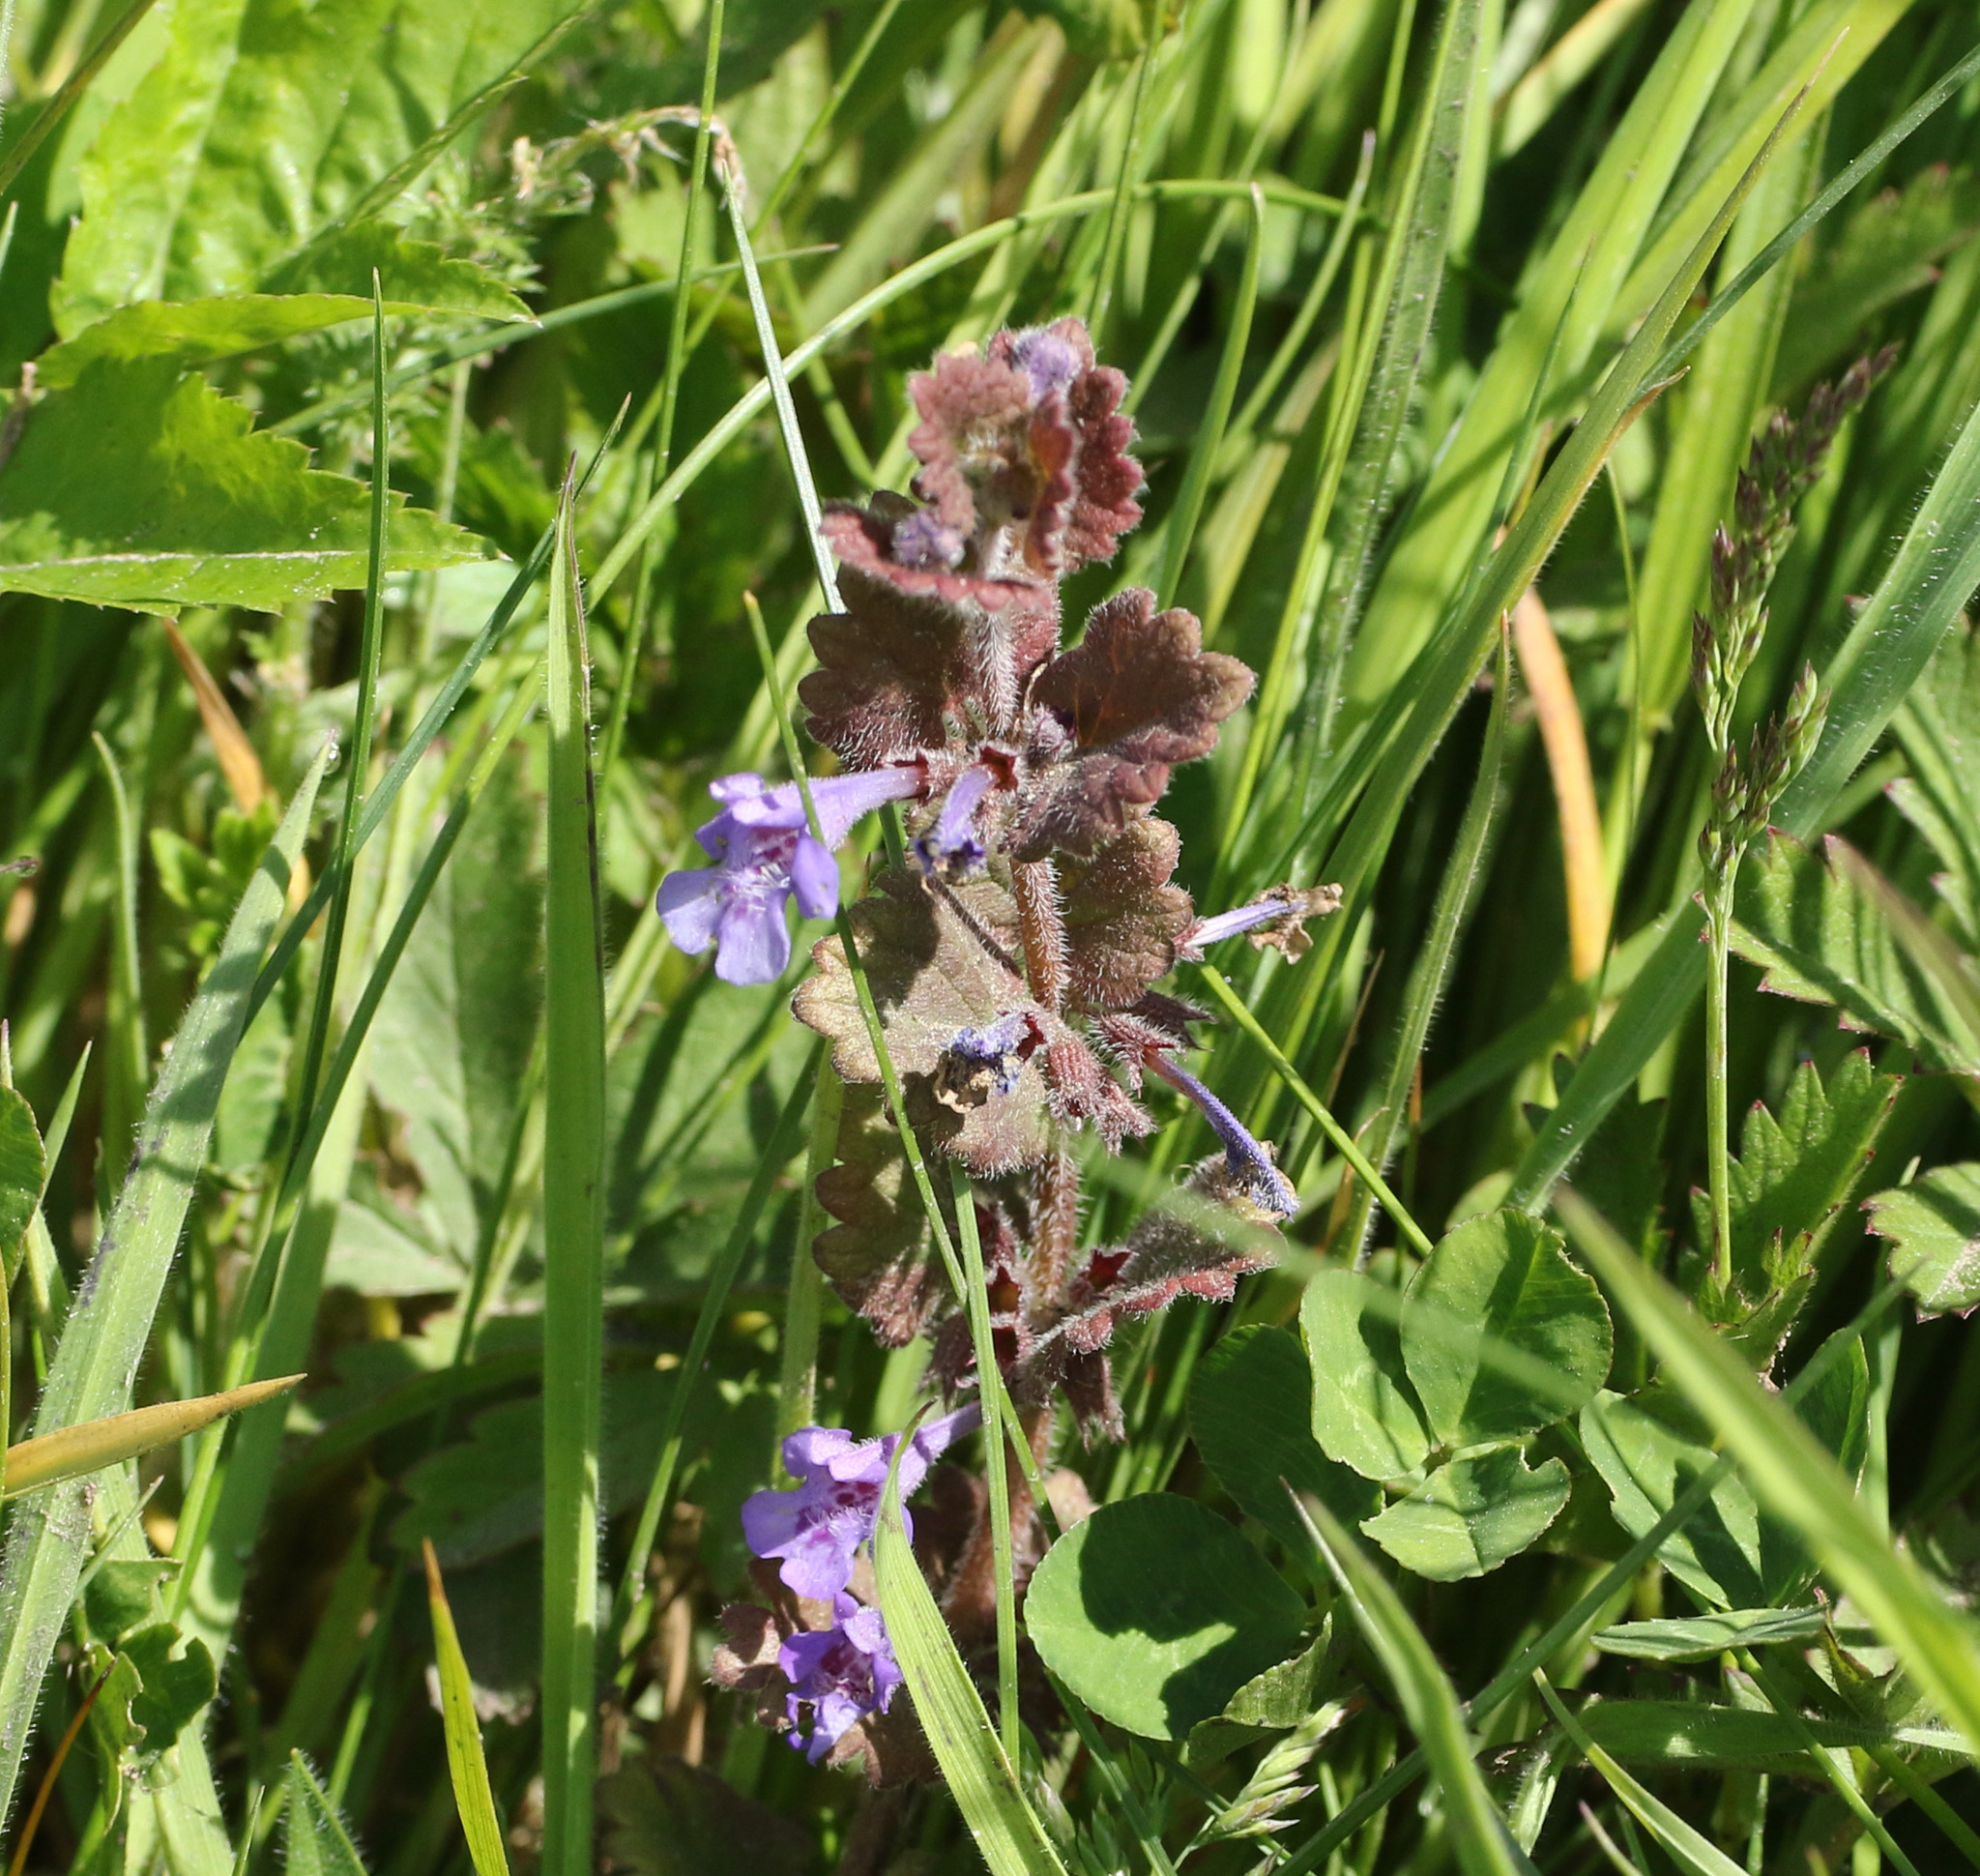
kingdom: Plantae
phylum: Tracheophyta
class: Magnoliopsida
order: Lamiales
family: Lamiaceae
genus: Glechoma
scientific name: Glechoma hederacea
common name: Ground ivy
